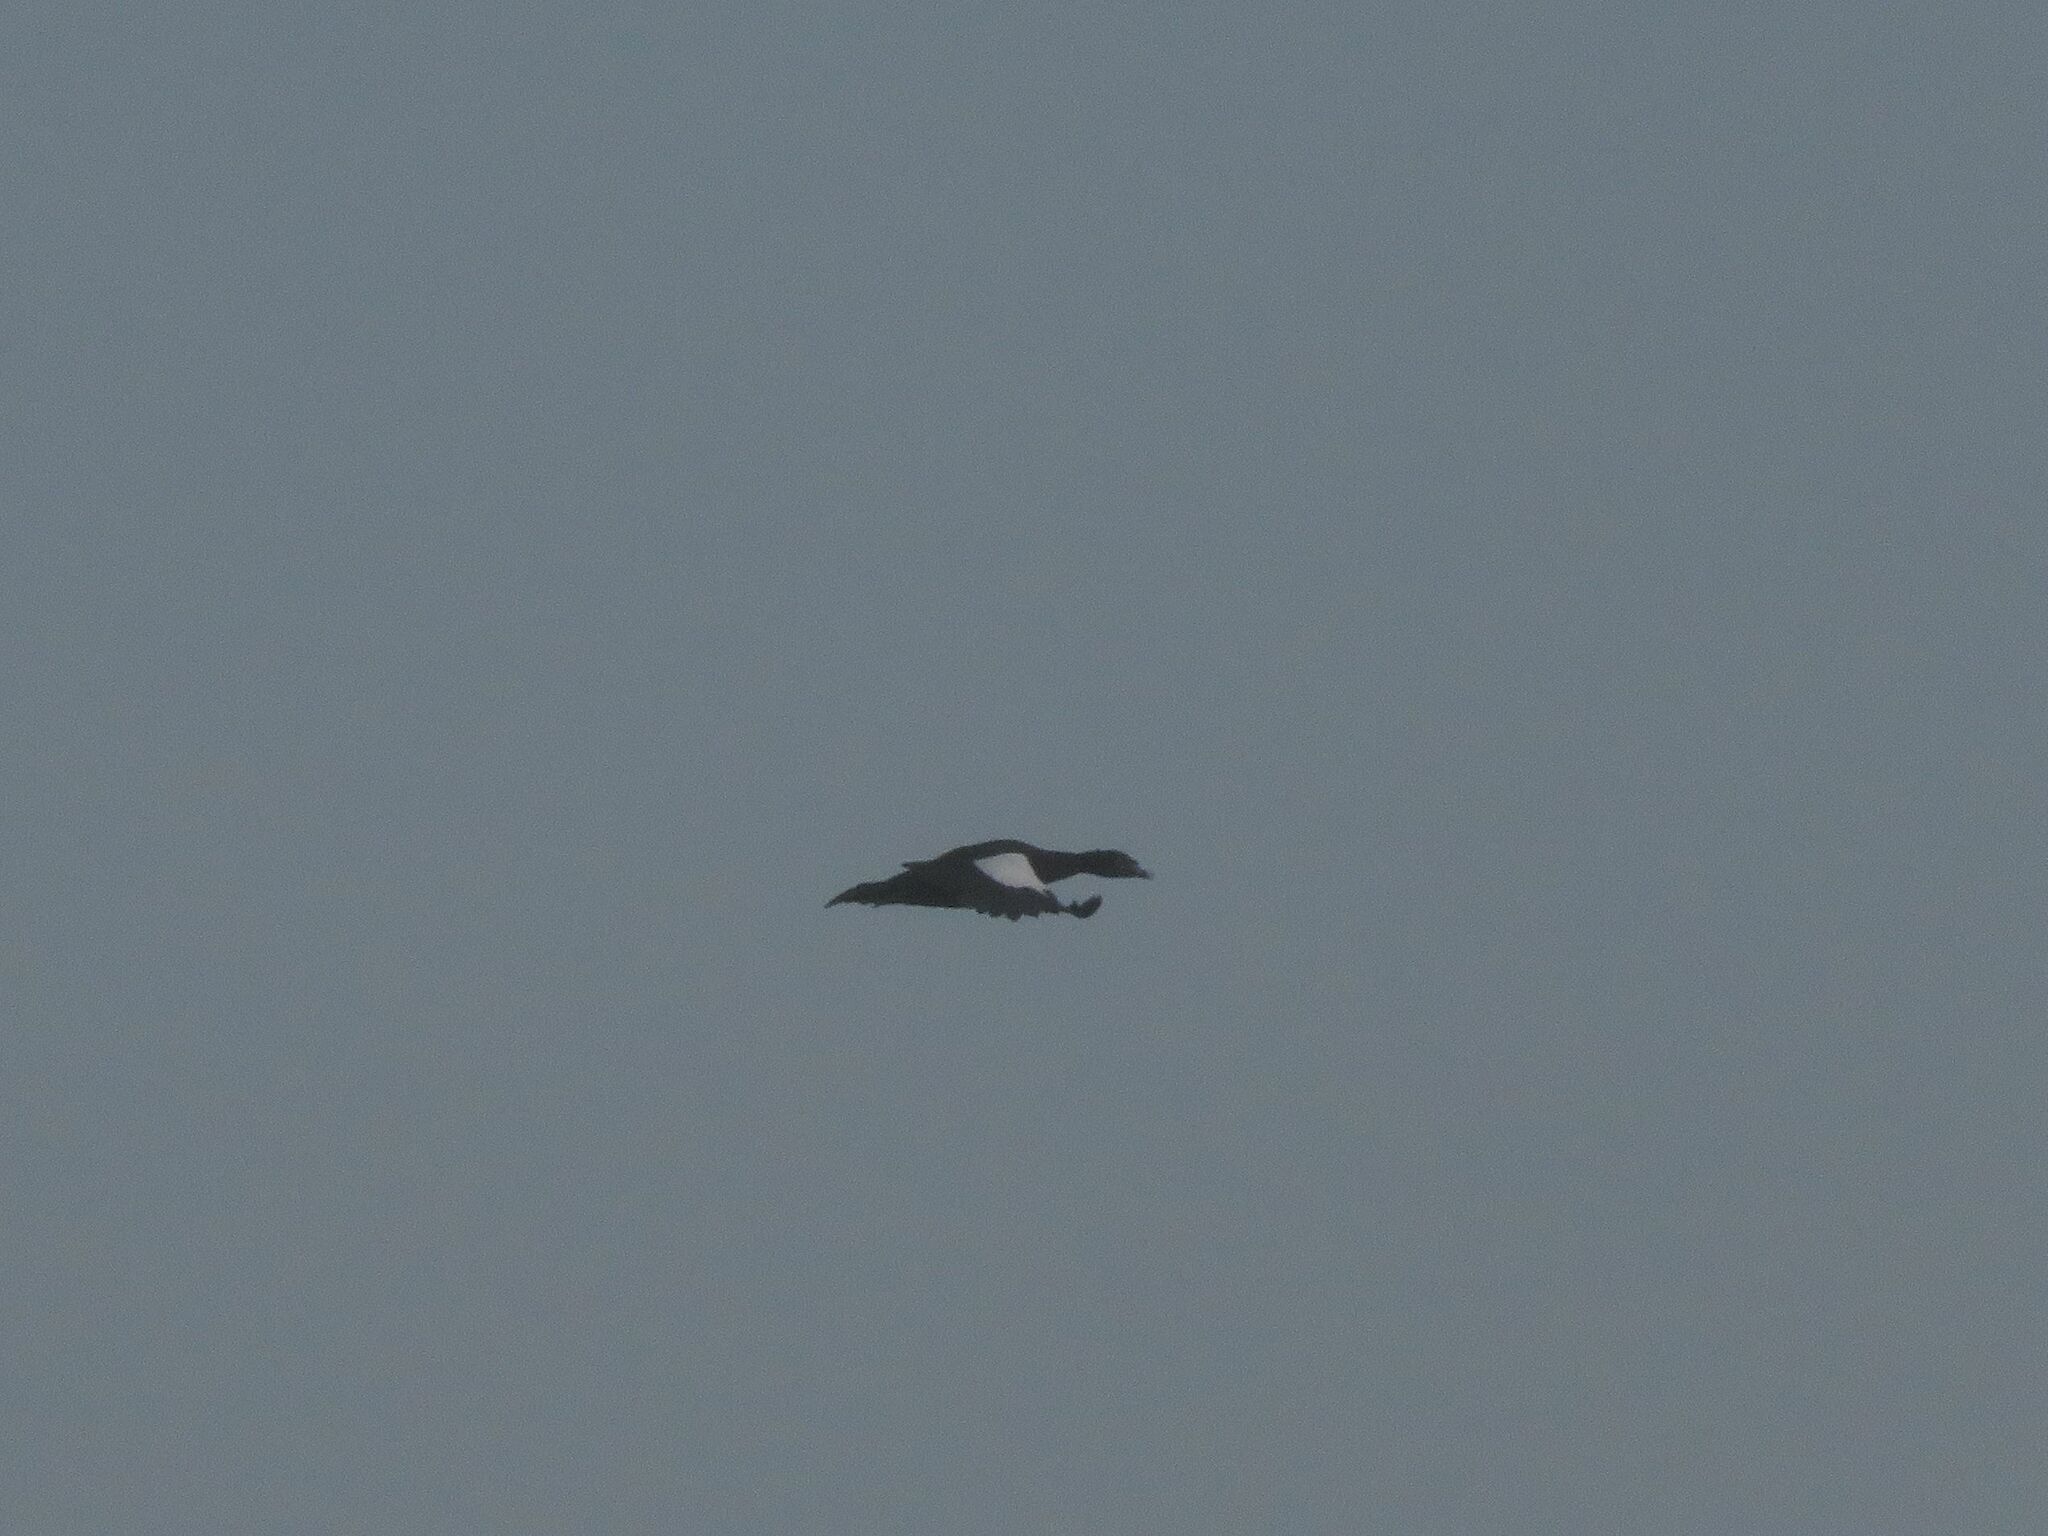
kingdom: Animalia
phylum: Chordata
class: Aves
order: Anseriformes
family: Anatidae
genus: Cairina
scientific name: Cairina moschata
